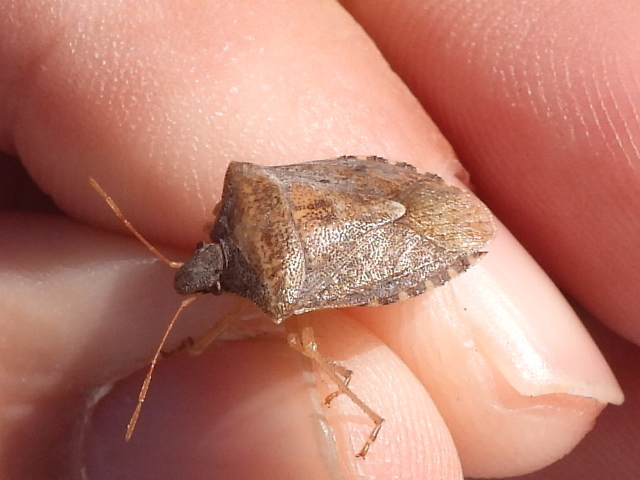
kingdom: Animalia
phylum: Arthropoda
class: Insecta
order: Hemiptera
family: Pentatomidae
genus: Euschistus
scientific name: Euschistus servus
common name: Brown stink bug
